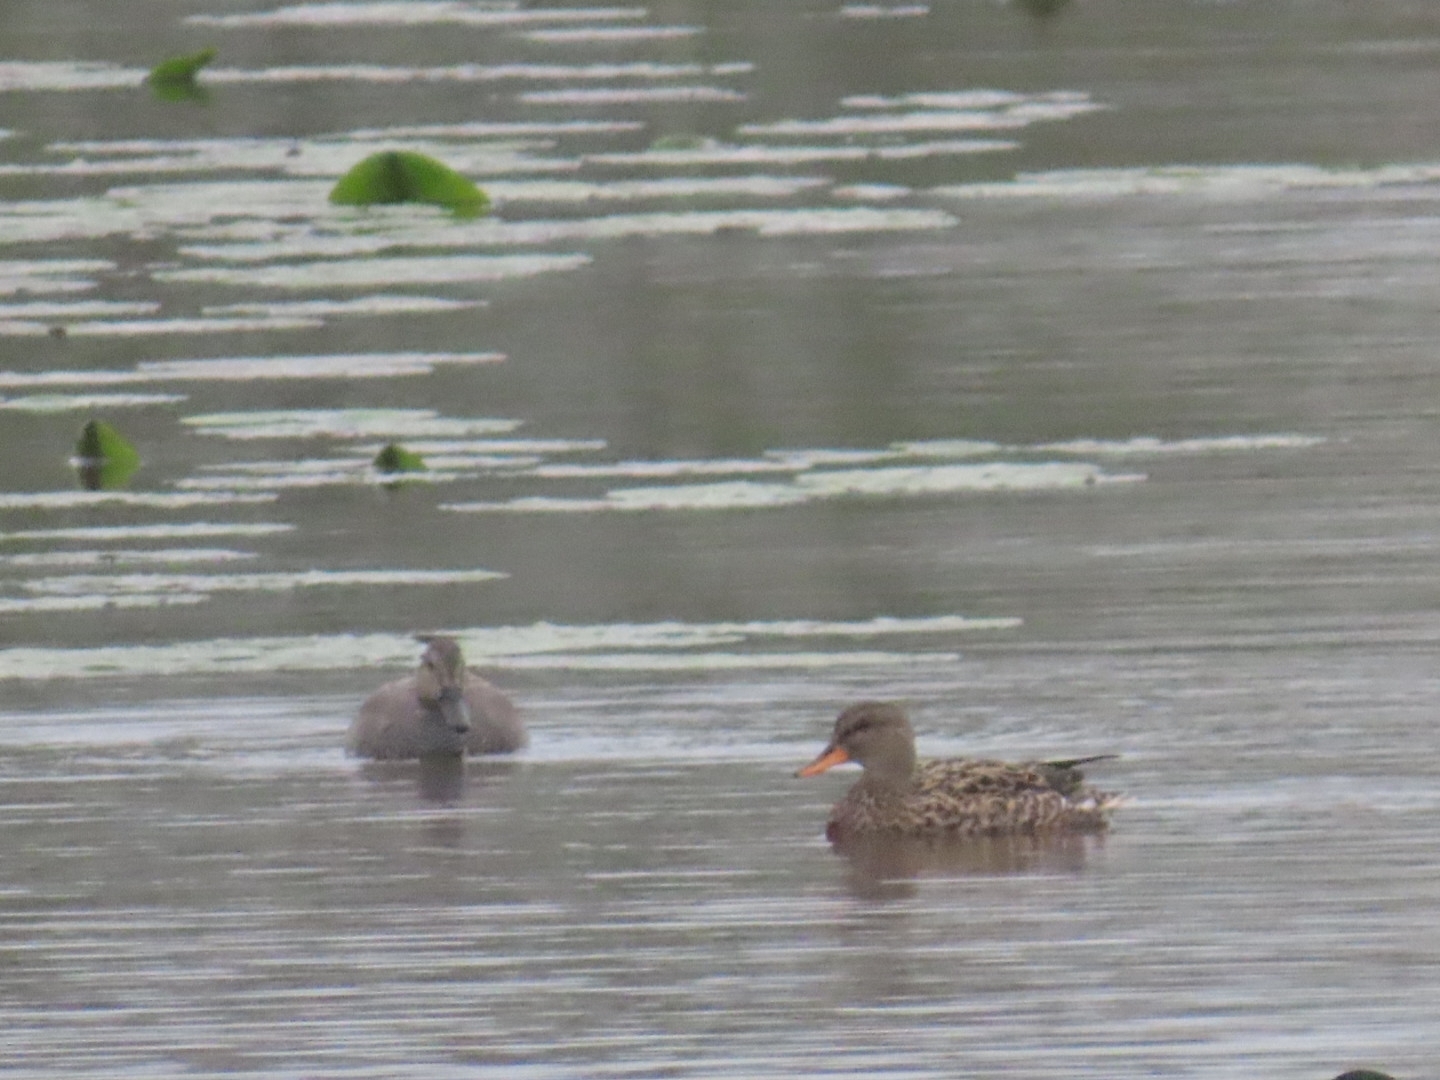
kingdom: Animalia
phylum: Chordata
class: Aves
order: Anseriformes
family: Anatidae
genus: Mareca
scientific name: Mareca strepera
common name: Gadwall
